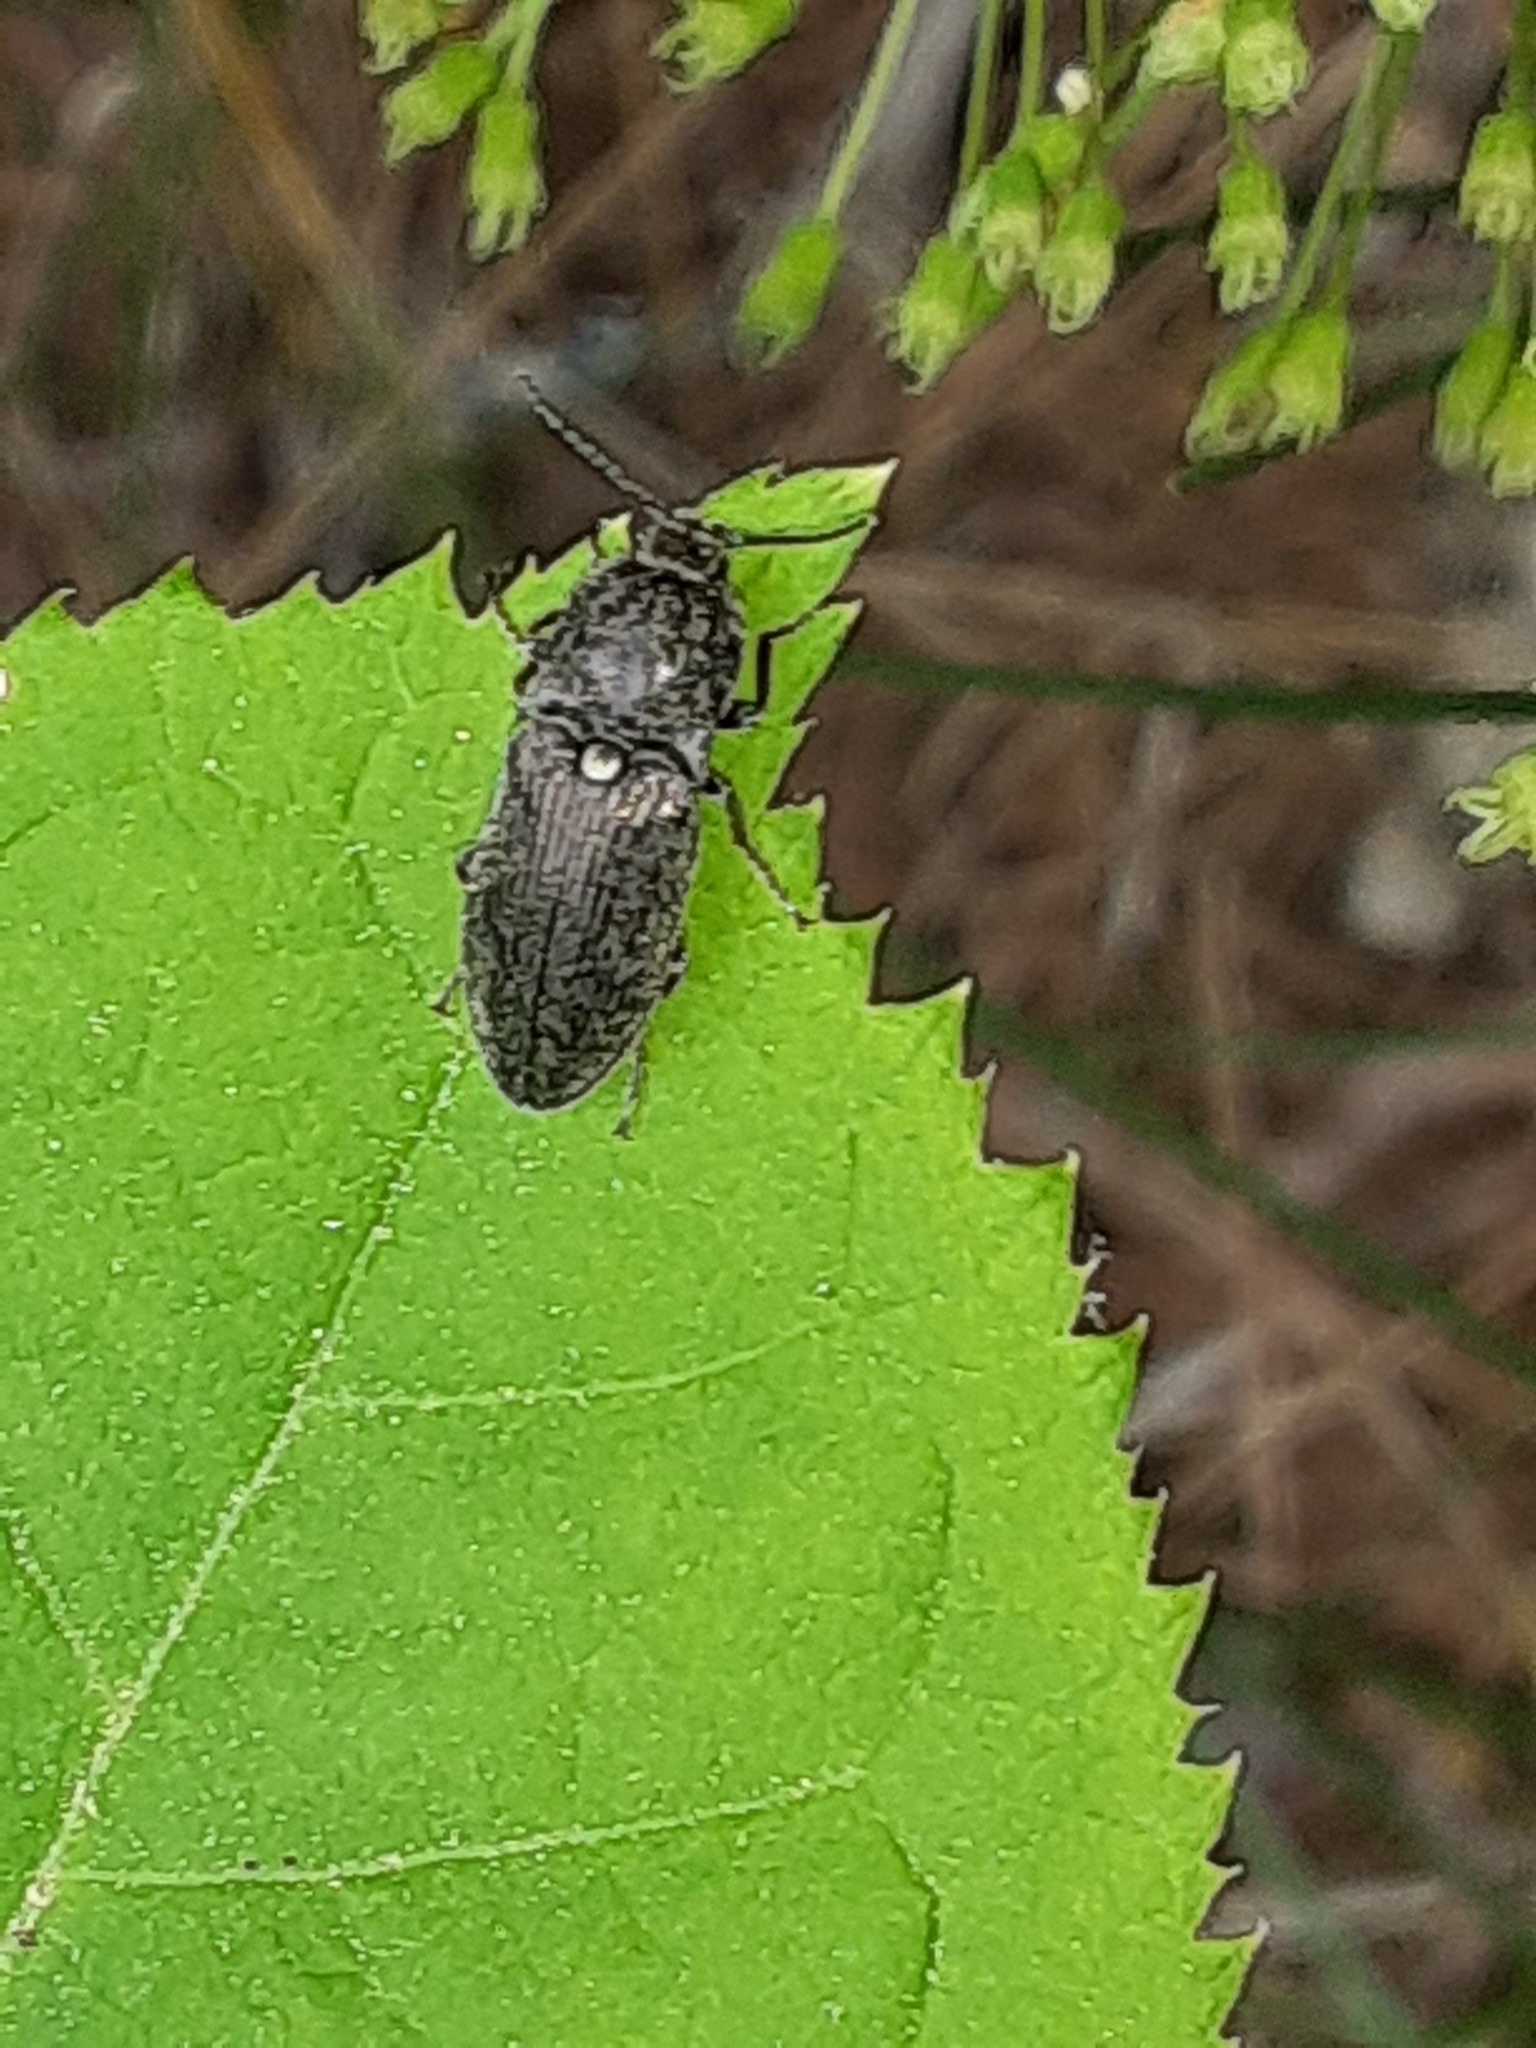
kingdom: Animalia
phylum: Arthropoda
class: Insecta
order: Coleoptera
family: Elateridae
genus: Hadromorphus
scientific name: Hadromorphus inflatus
